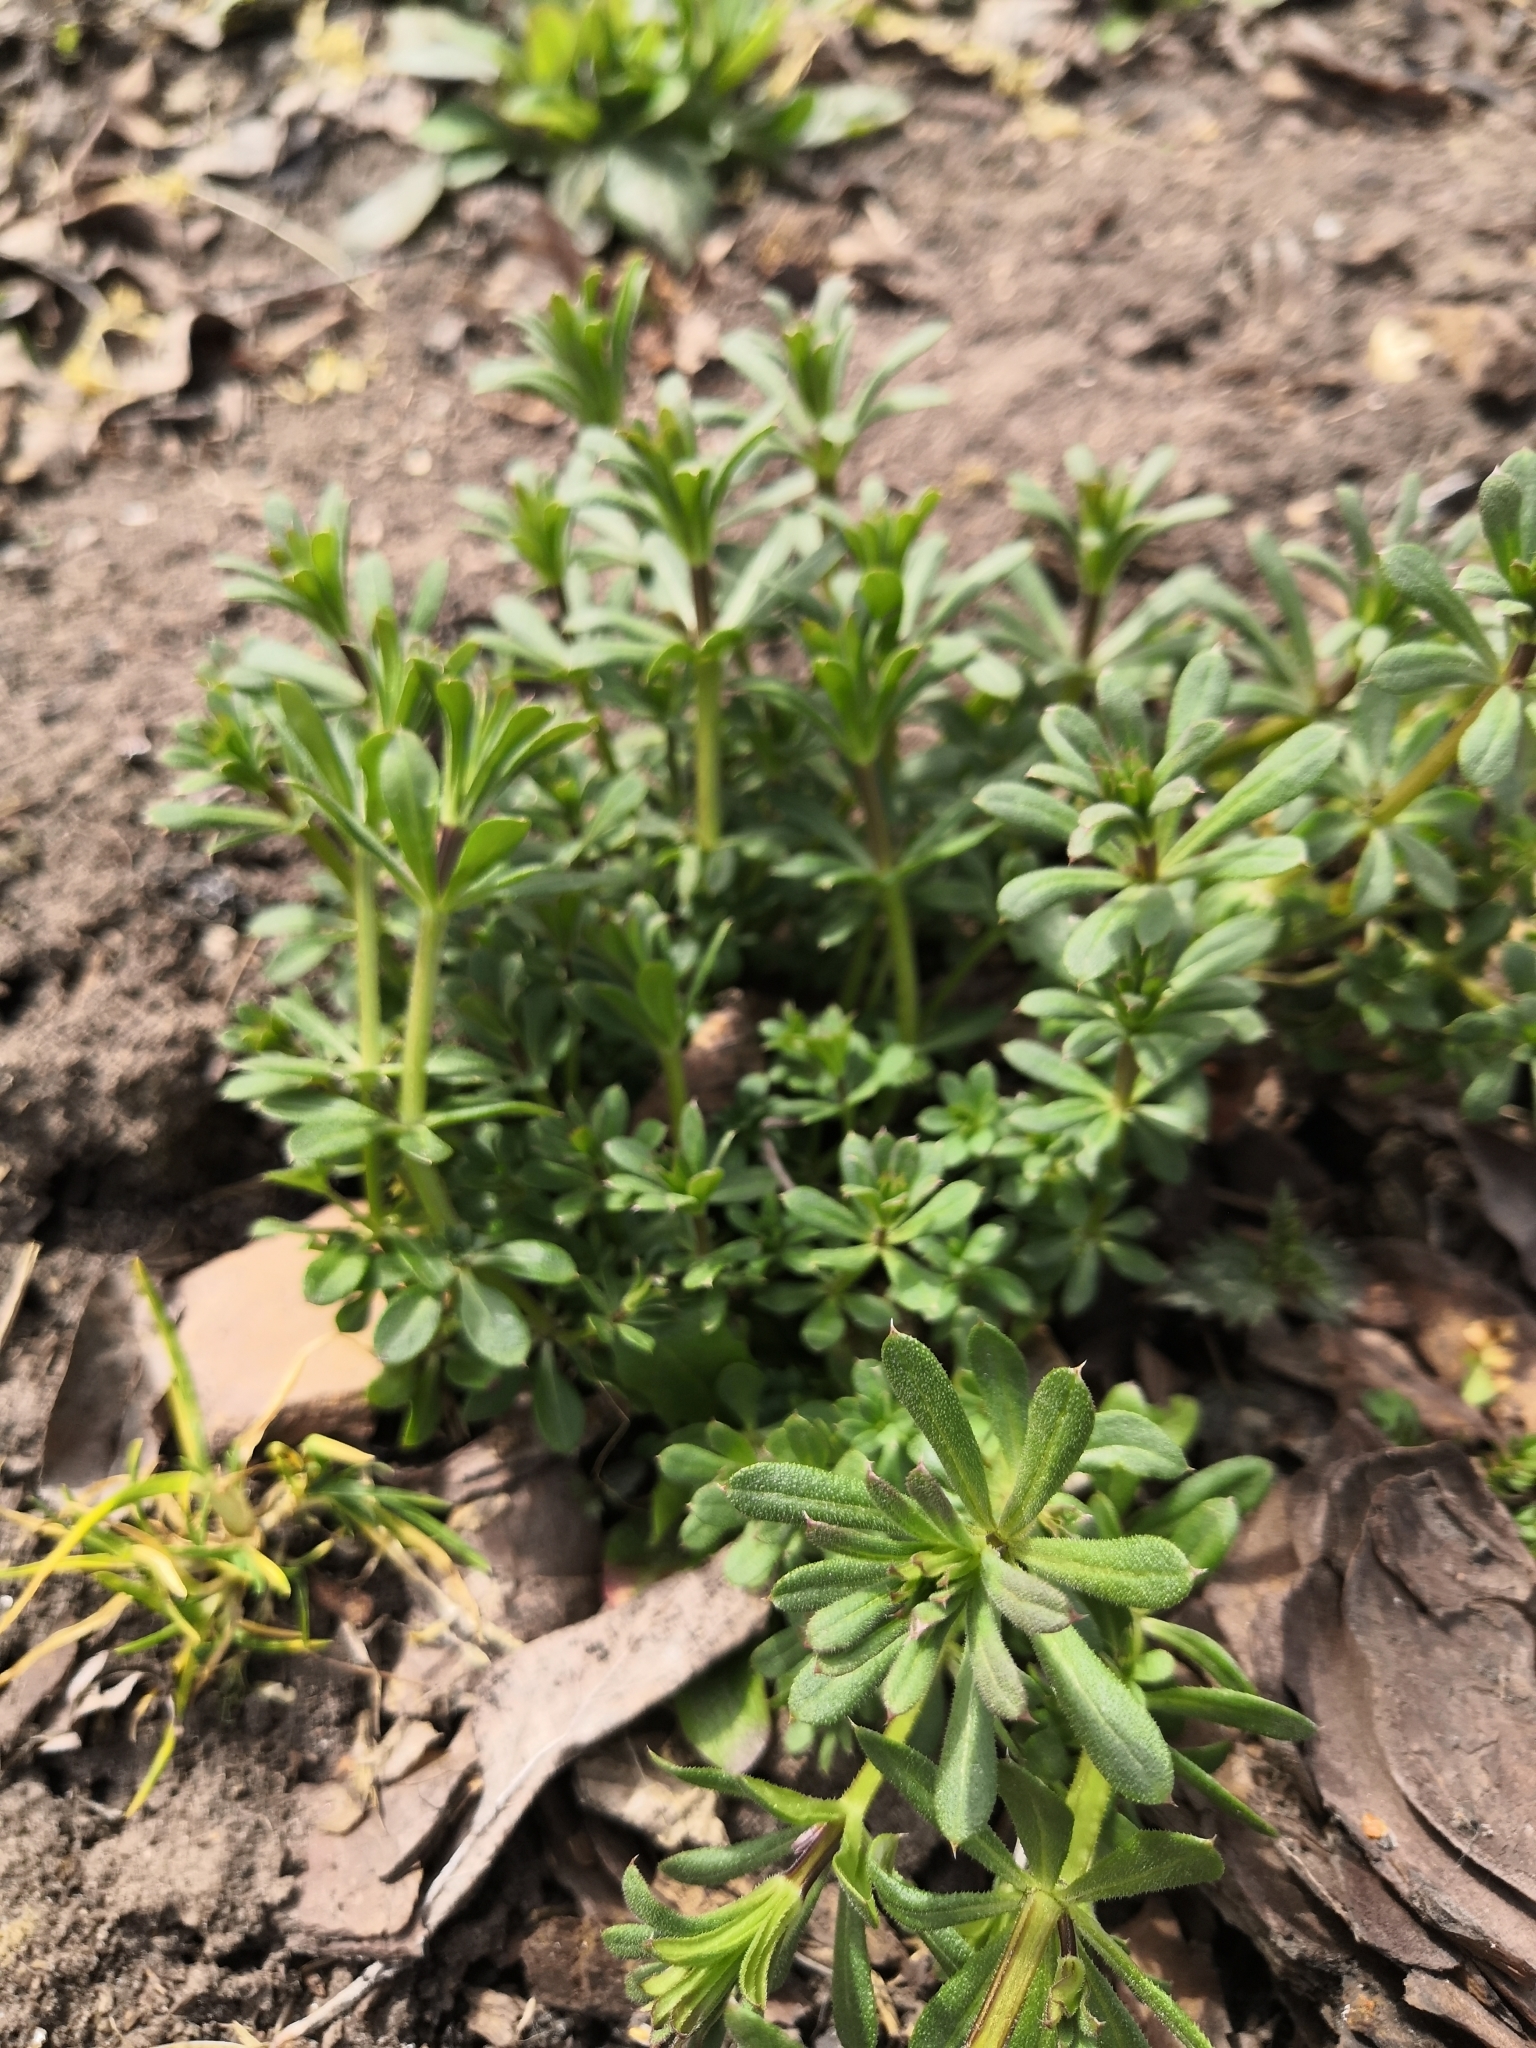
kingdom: Plantae
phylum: Tracheophyta
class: Magnoliopsida
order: Gentianales
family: Rubiaceae
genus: Galium
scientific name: Galium spurium
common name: False cleavers
